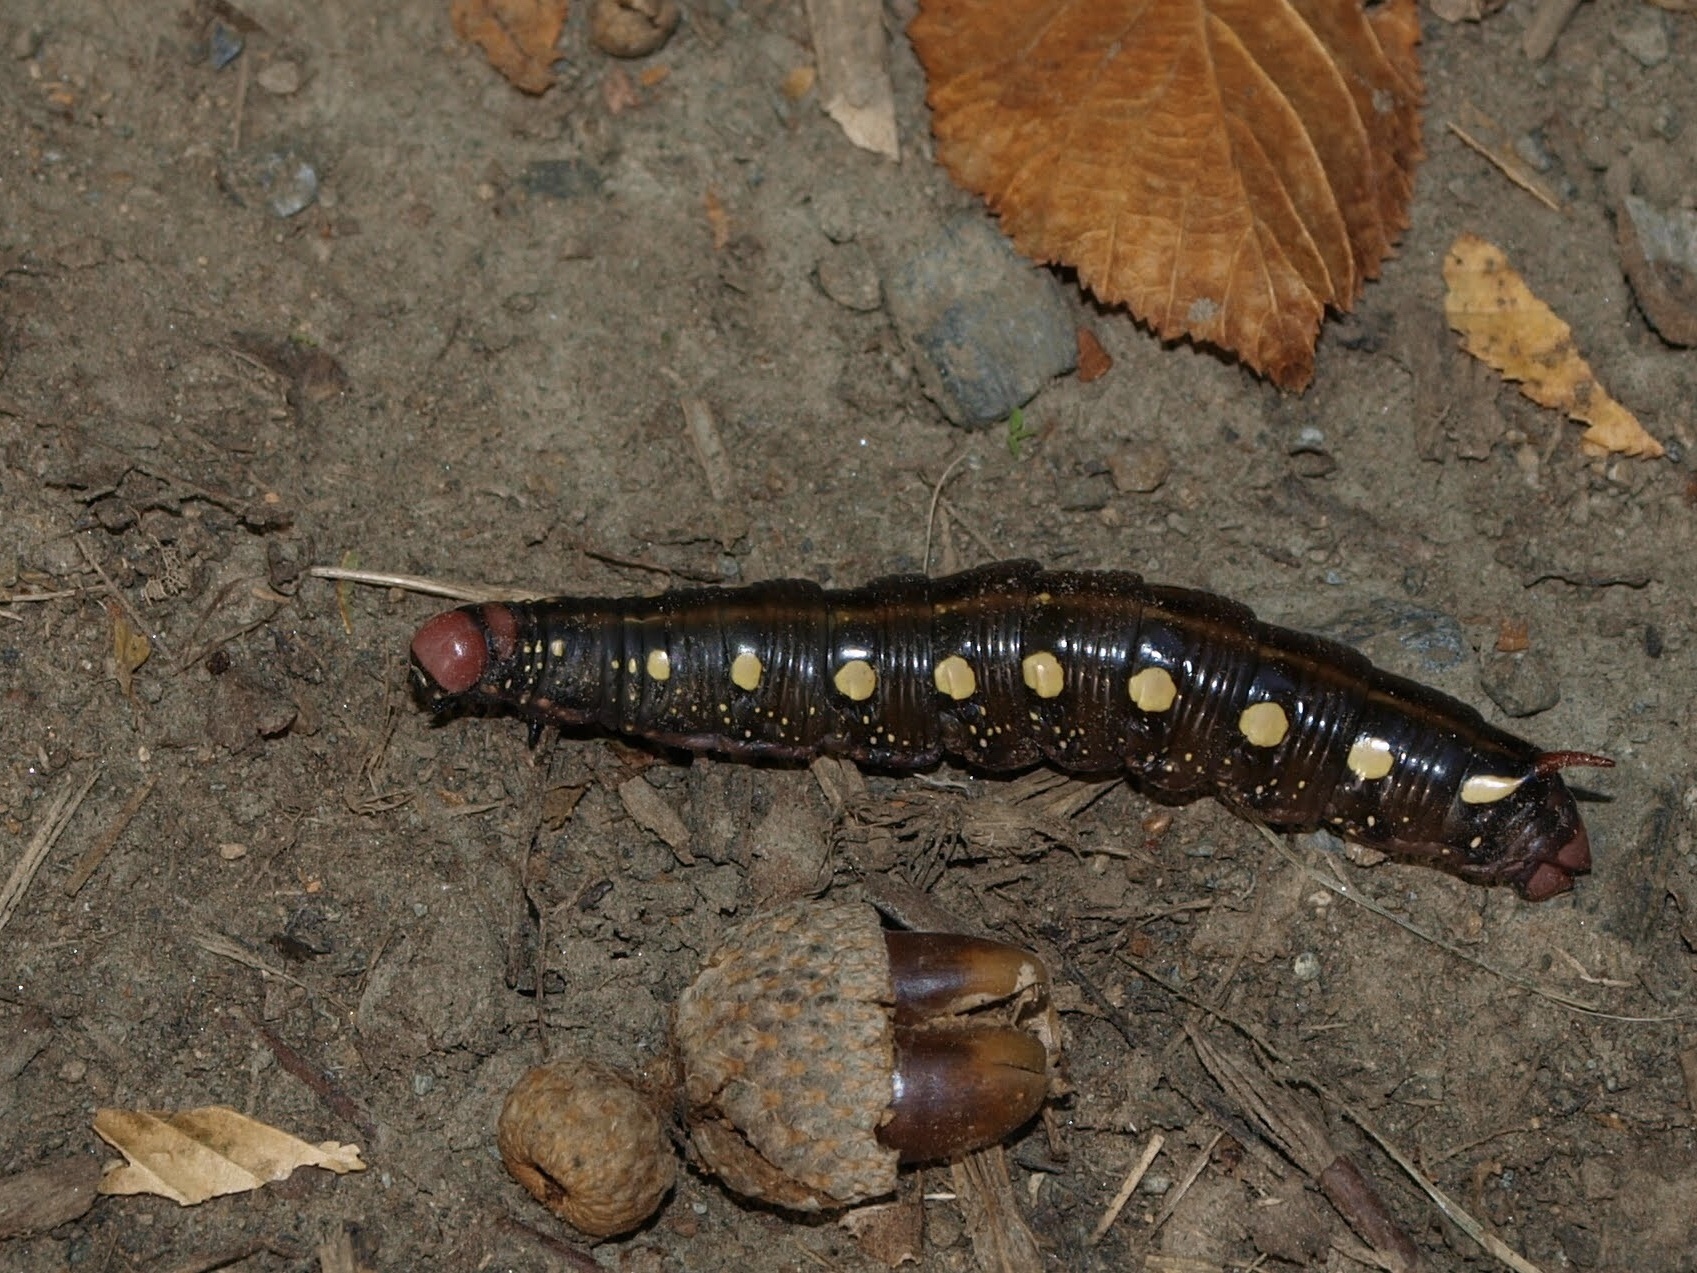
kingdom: Animalia
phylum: Arthropoda
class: Insecta
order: Lepidoptera
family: Sphingidae
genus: Hyles
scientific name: Hyles gallii
